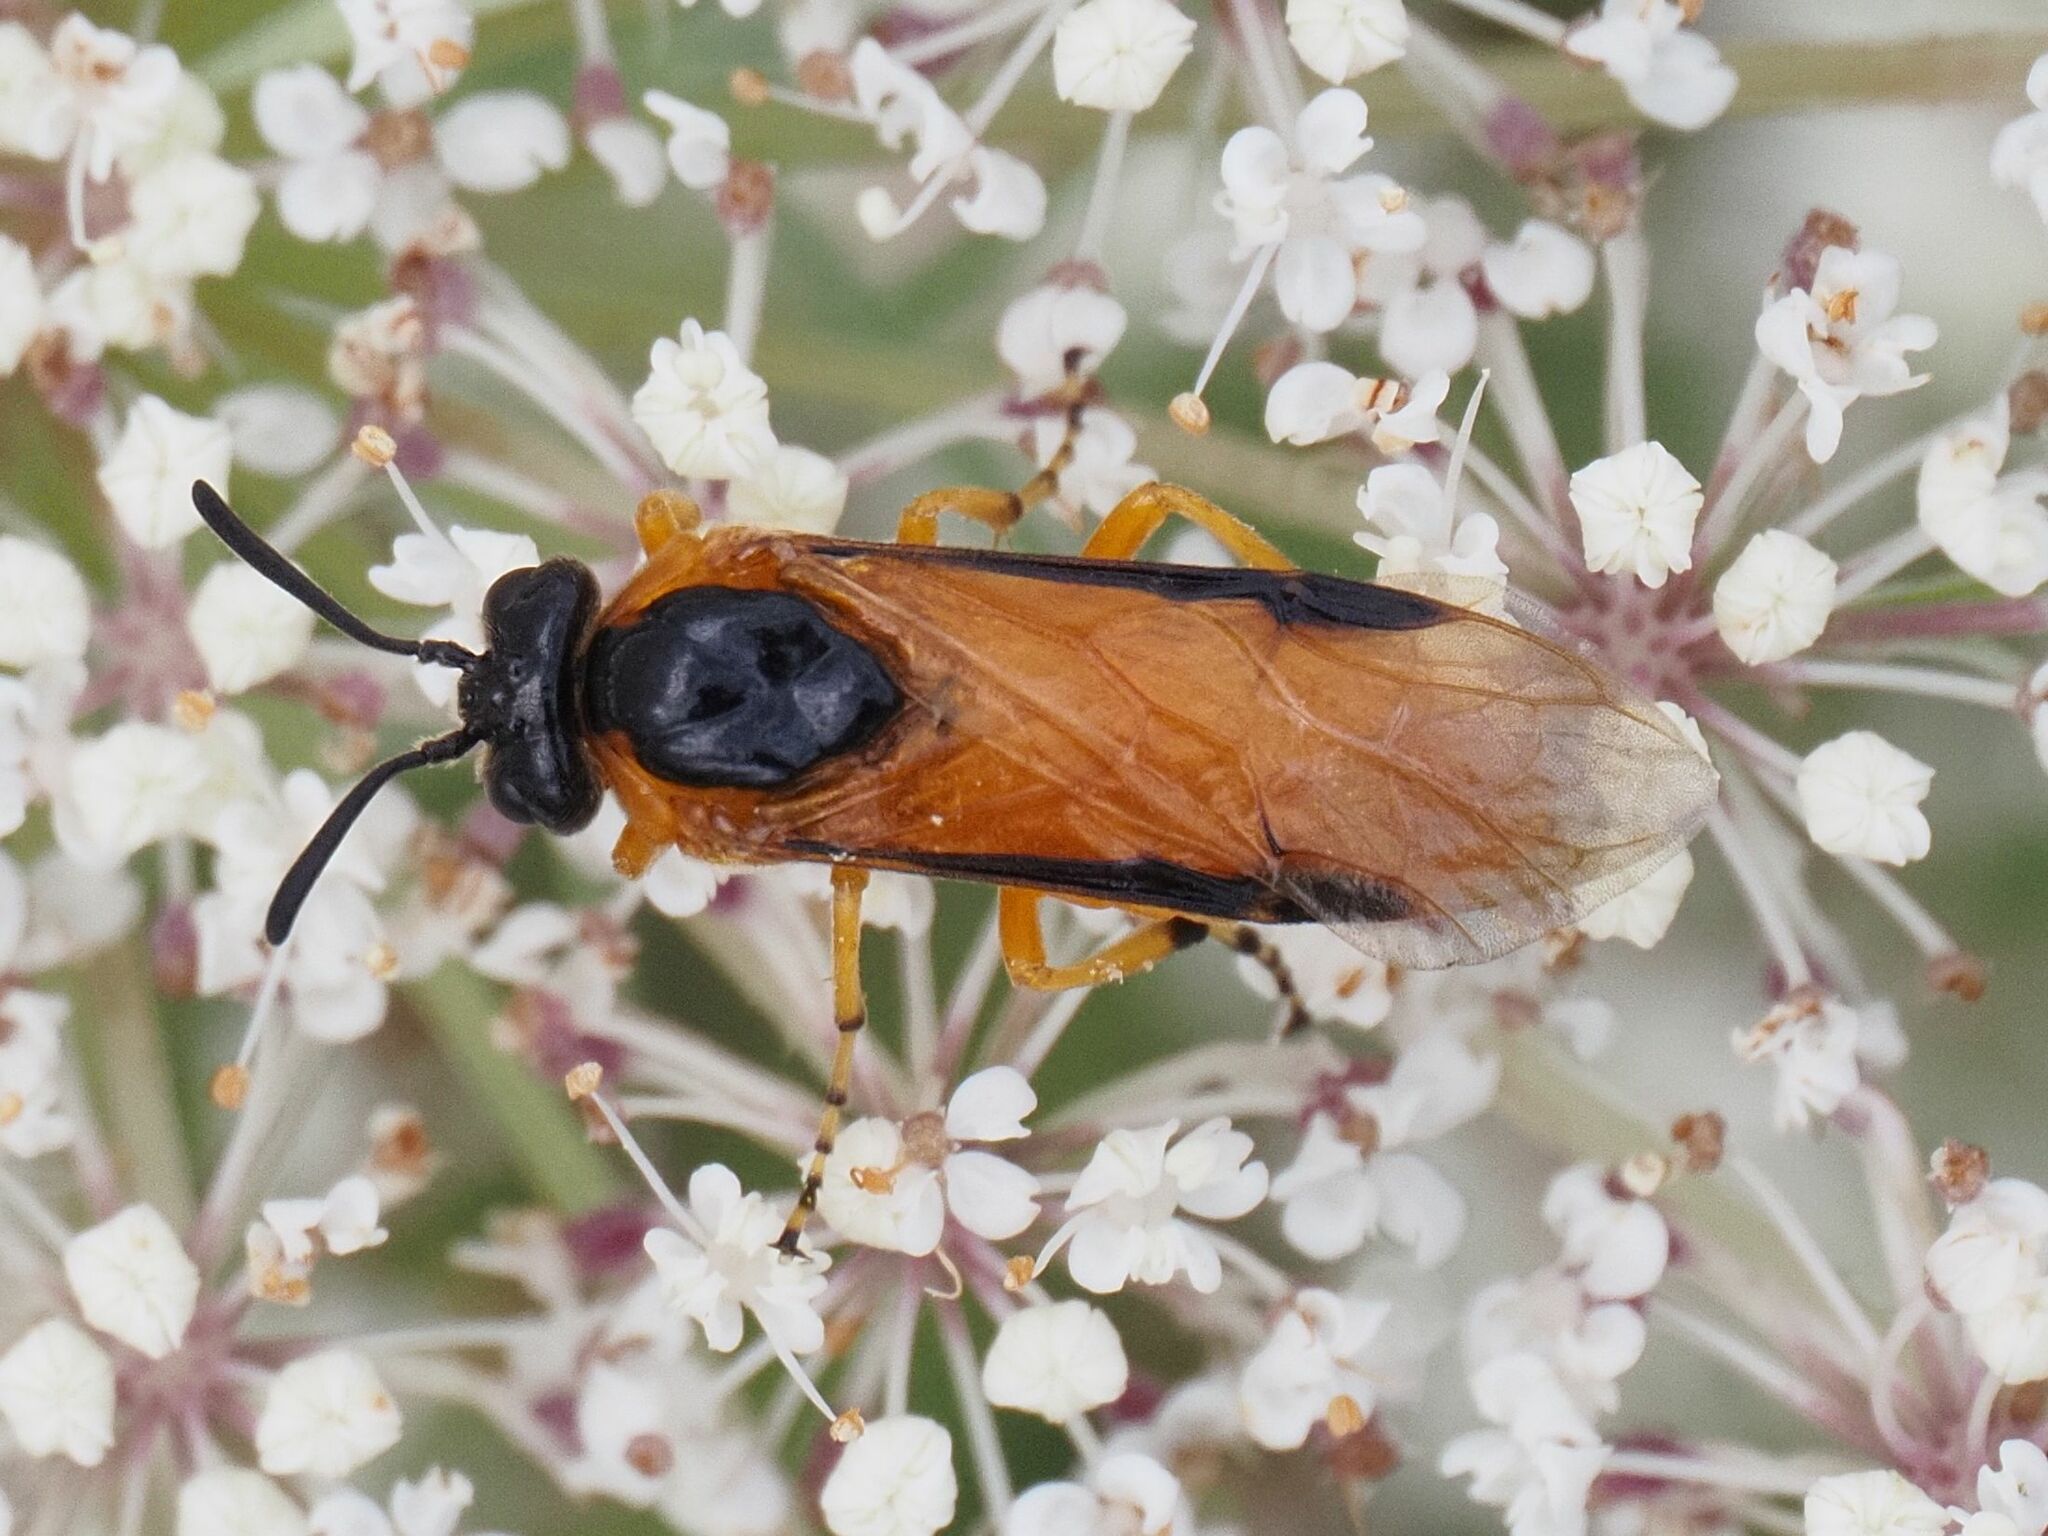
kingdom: Animalia
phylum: Arthropoda
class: Insecta
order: Hymenoptera
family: Argidae
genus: Arge
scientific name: Arge ochropus
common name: Argid sawfly
